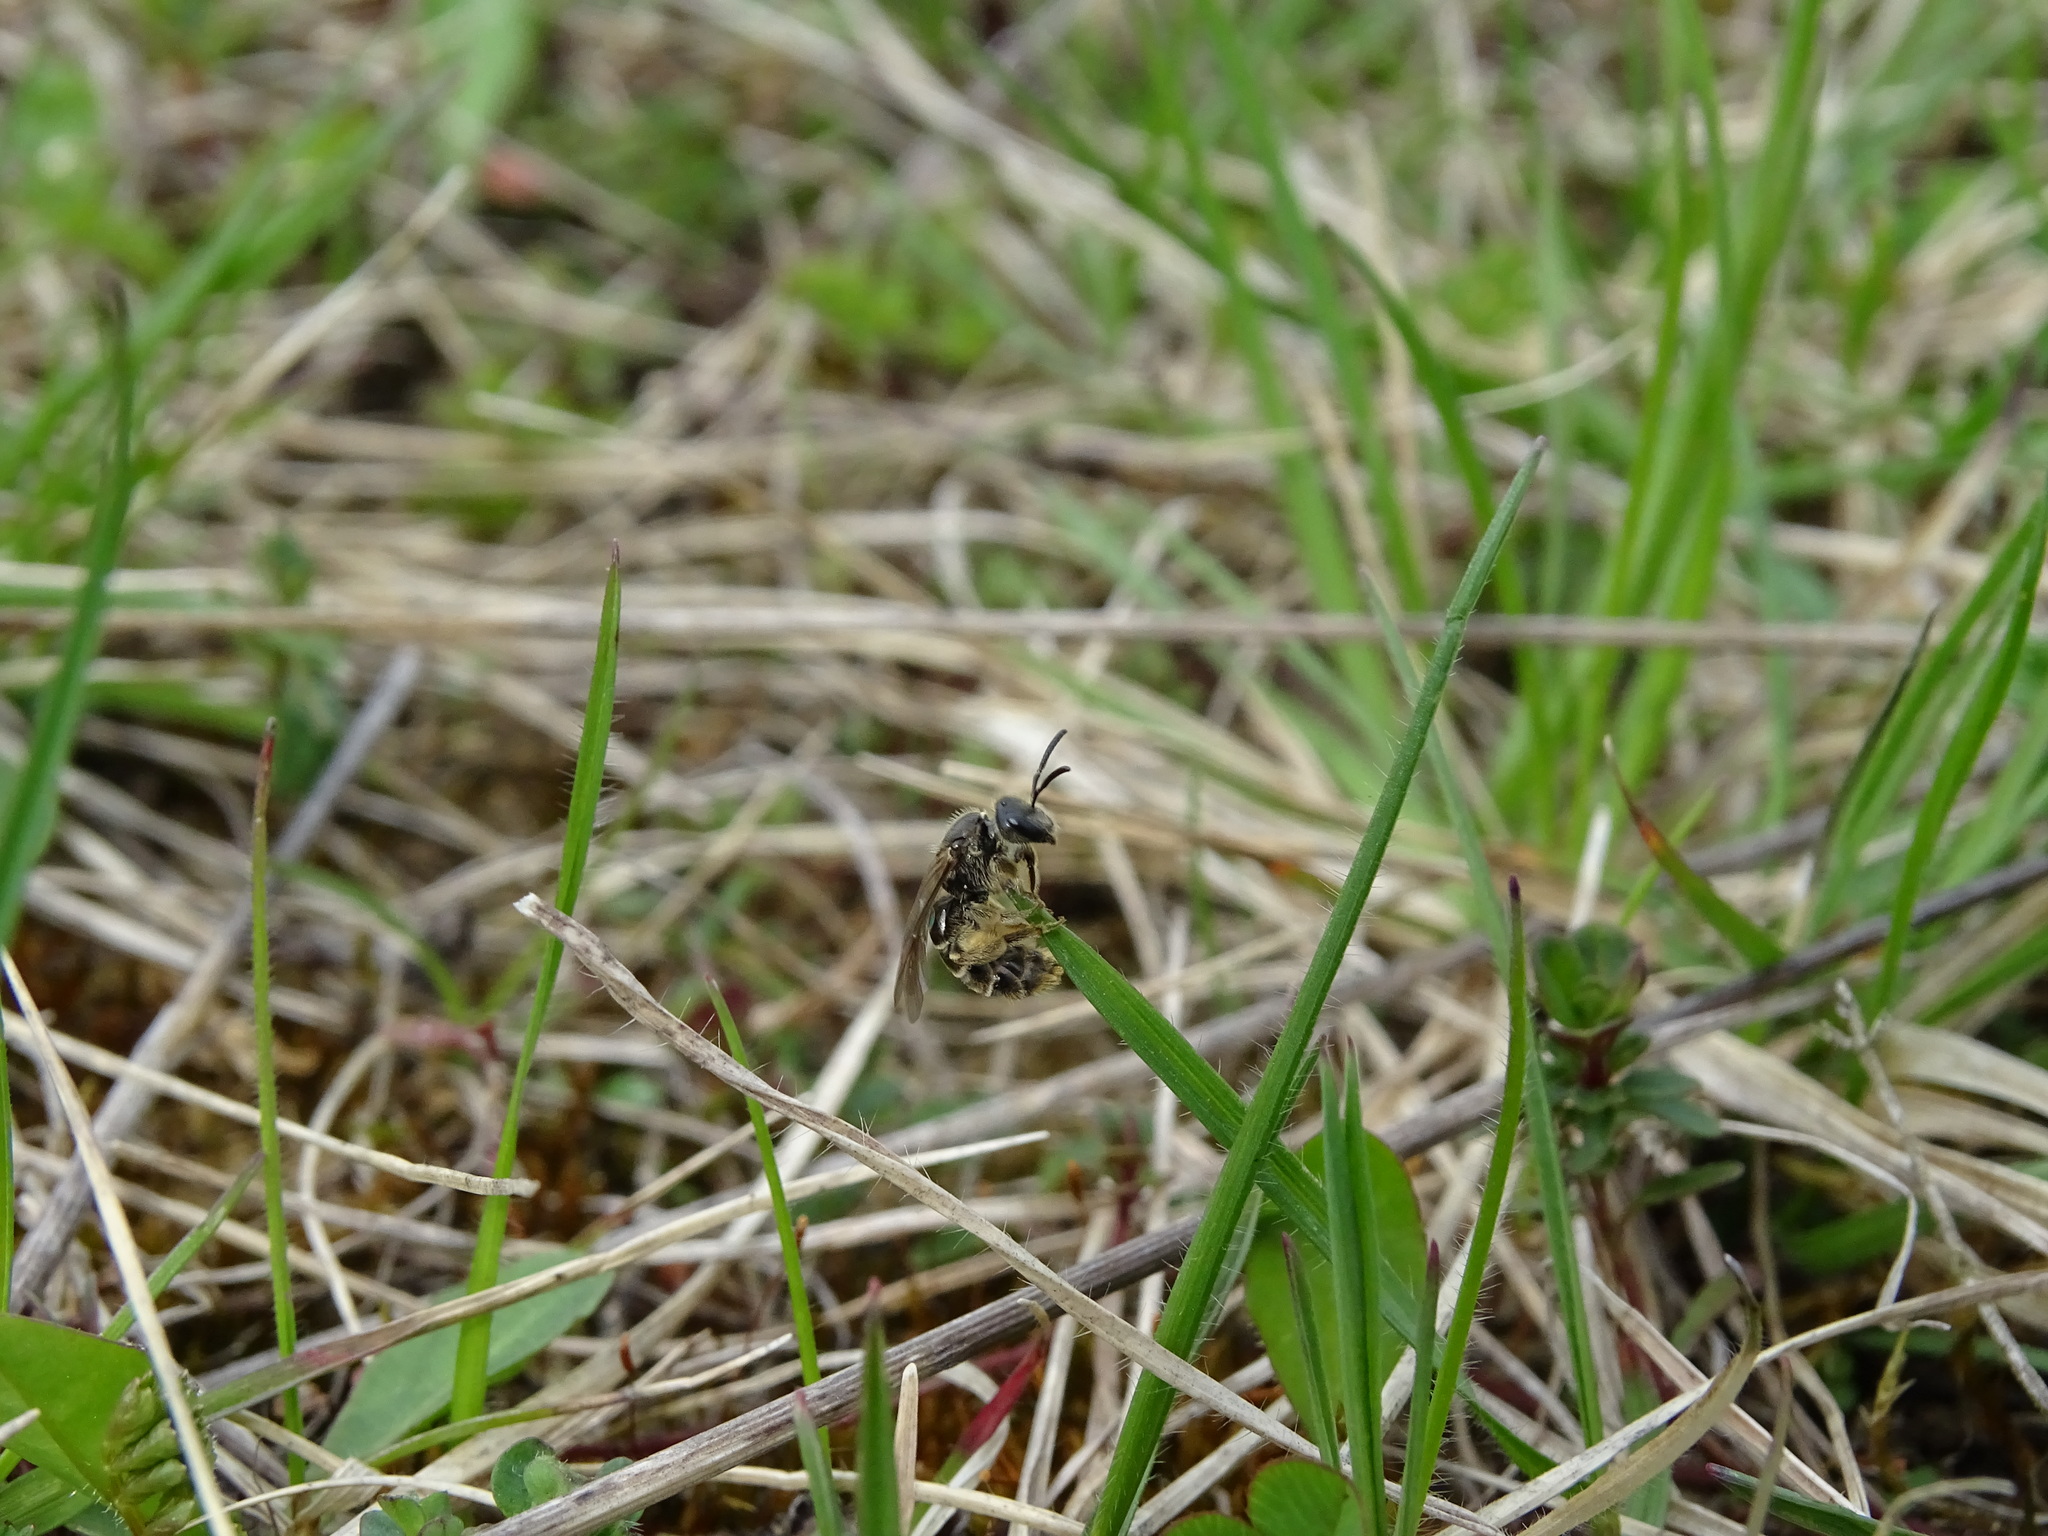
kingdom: Animalia
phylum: Arthropoda
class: Insecta
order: Hymenoptera
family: Halictidae
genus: Lasioglossum
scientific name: Lasioglossum marginatum
